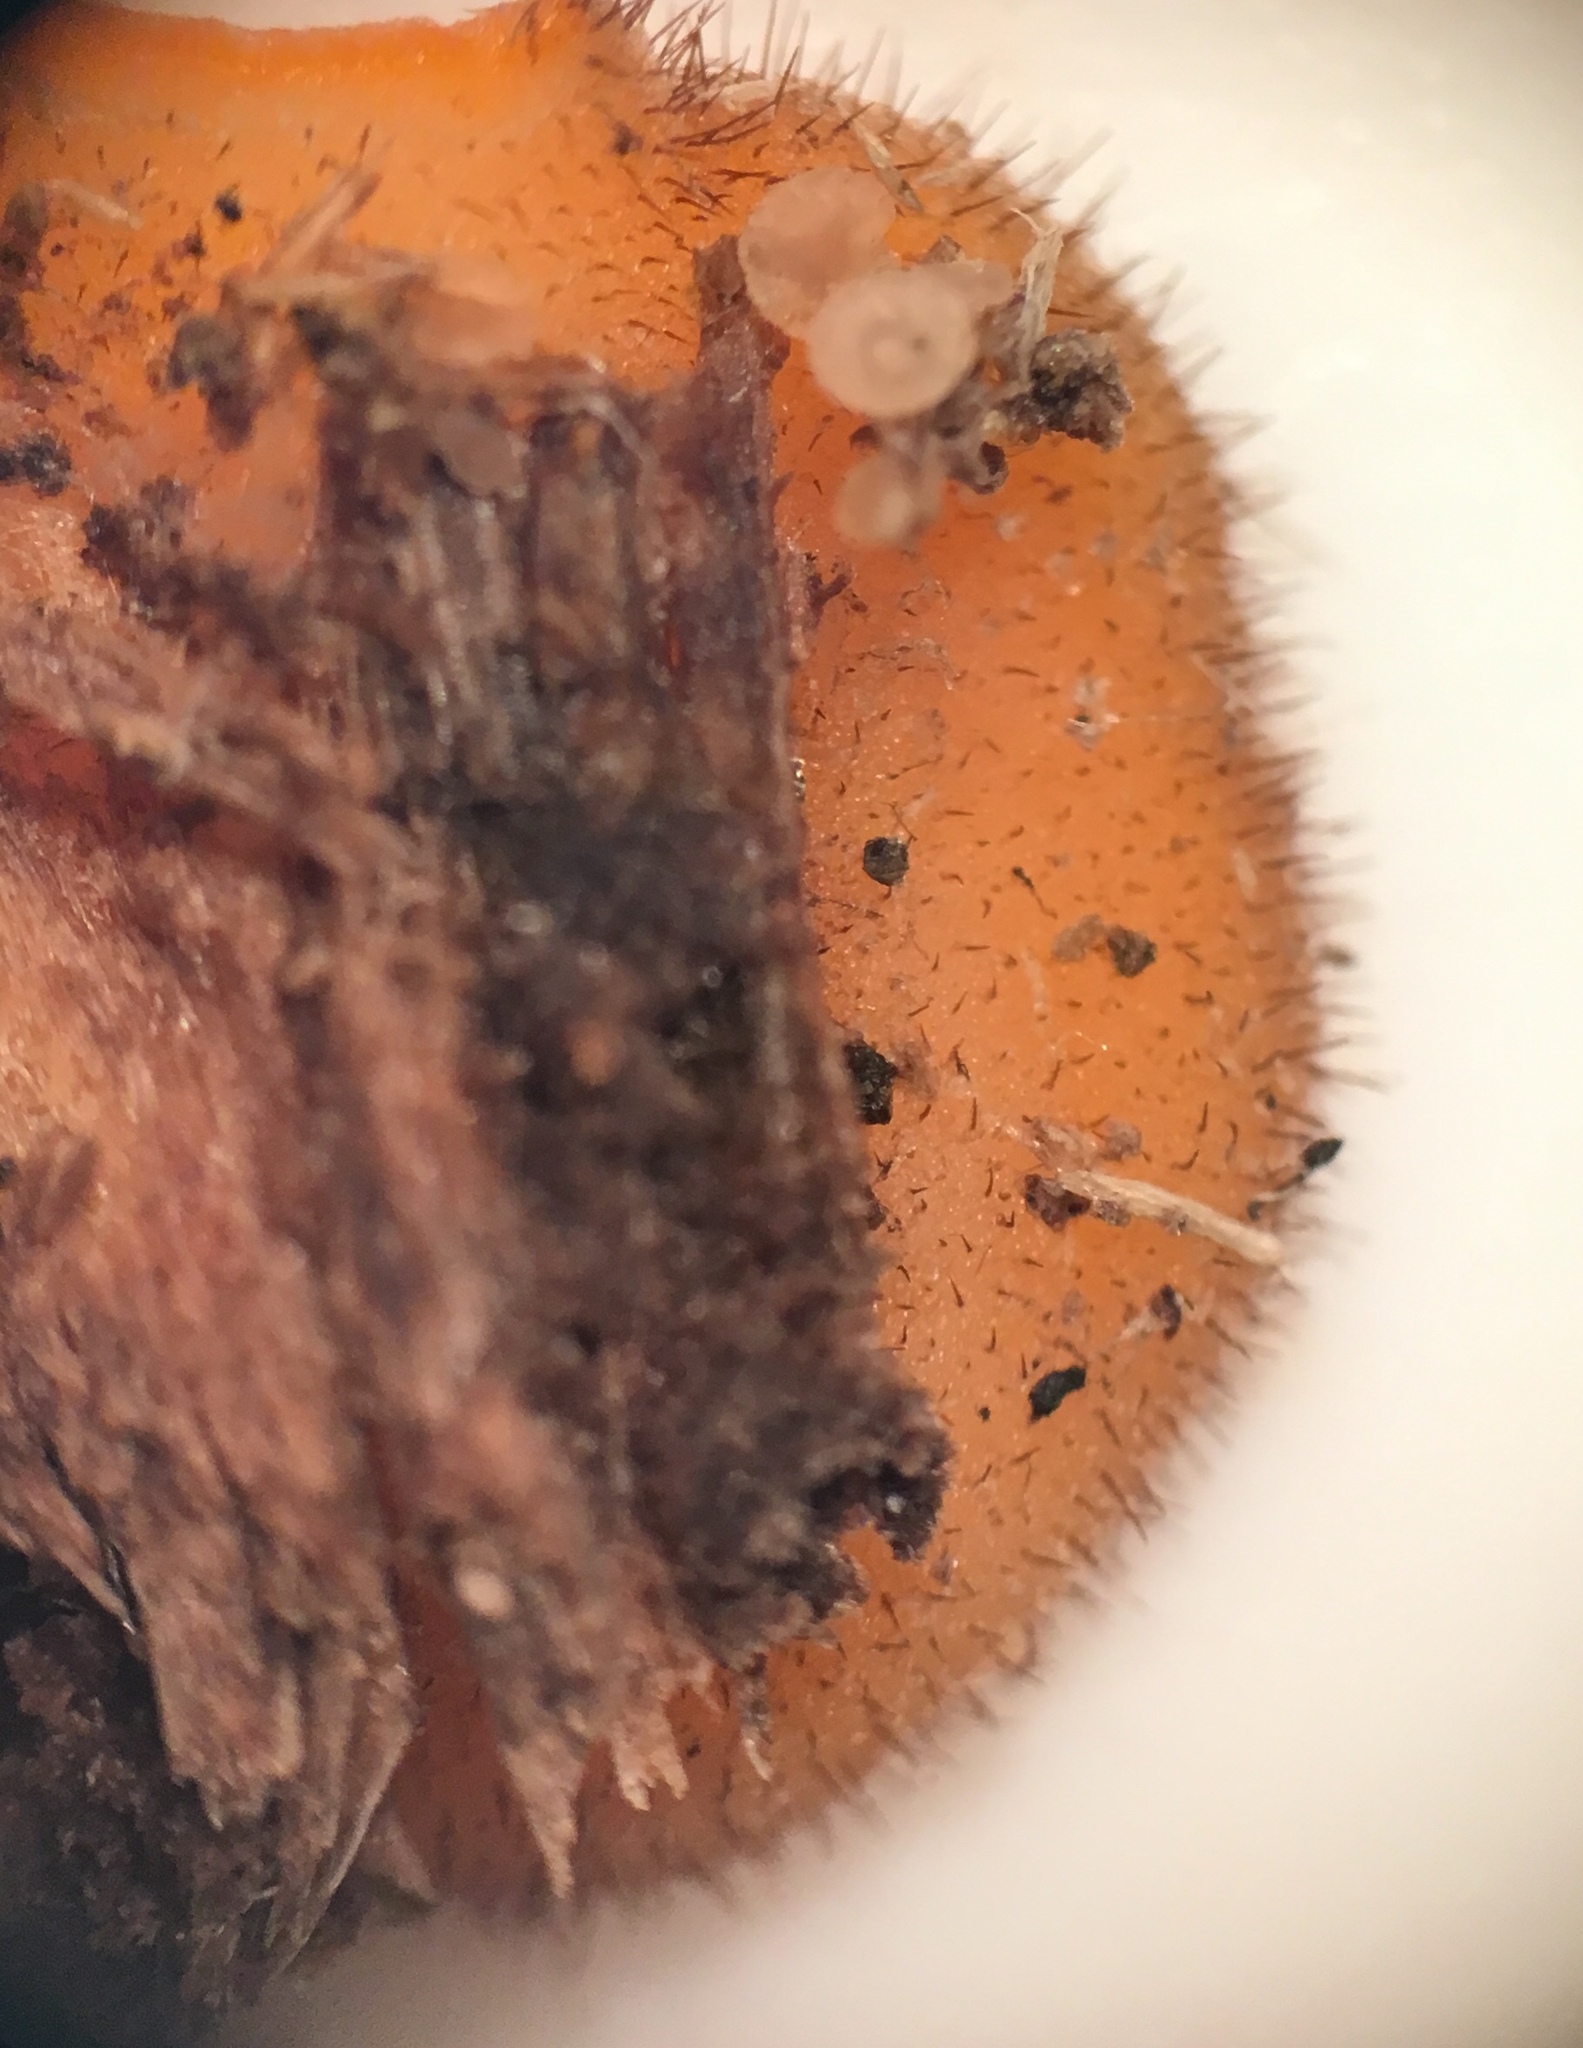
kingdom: Fungi
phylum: Ascomycota
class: Pezizomycetes
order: Pezizales
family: Pyronemataceae
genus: Scutellinia
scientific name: Scutellinia olivascens
